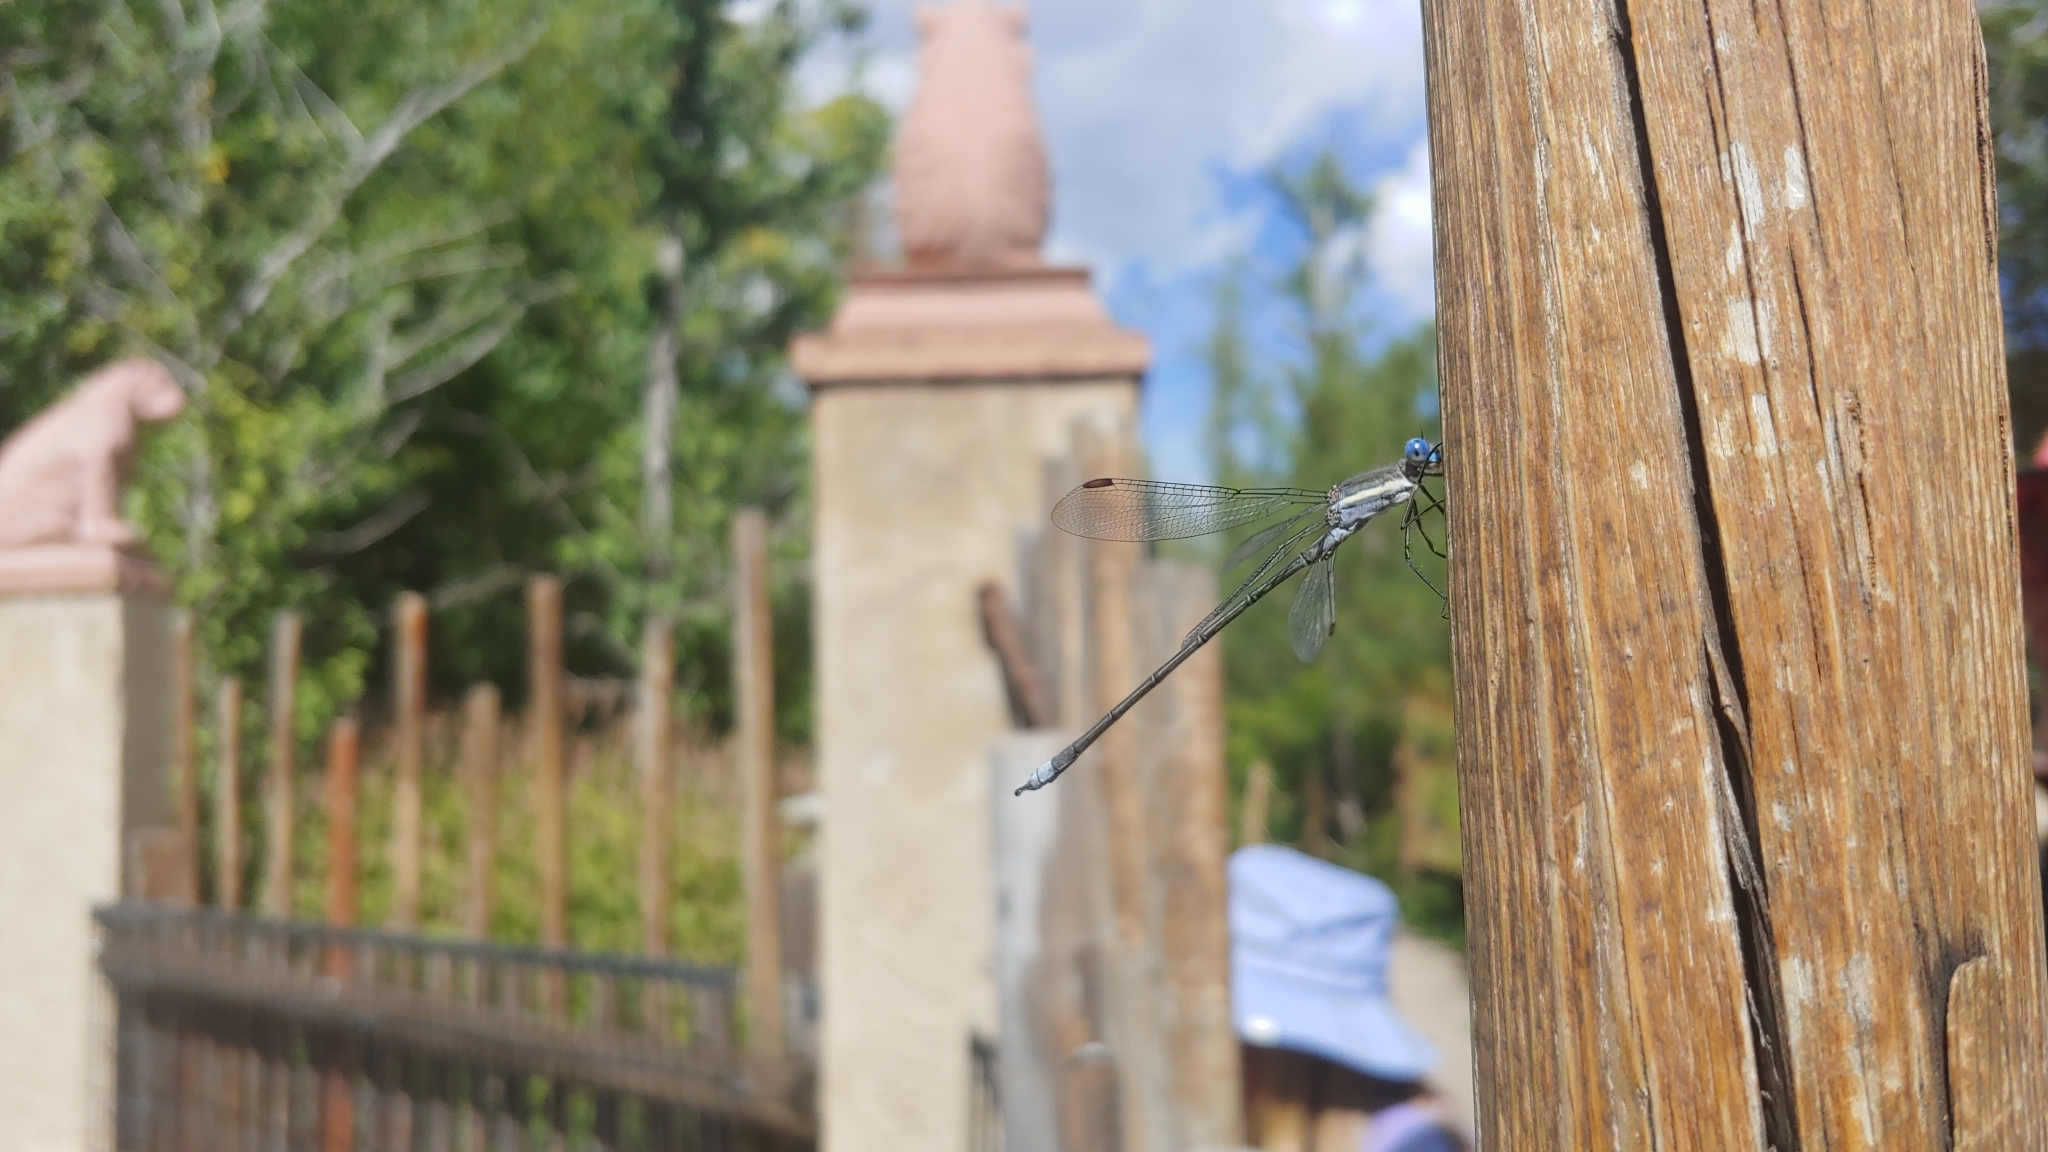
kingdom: Animalia
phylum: Arthropoda
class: Insecta
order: Odonata
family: Lestidae
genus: Archilestes
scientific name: Archilestes grandis
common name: Great spreadwing
